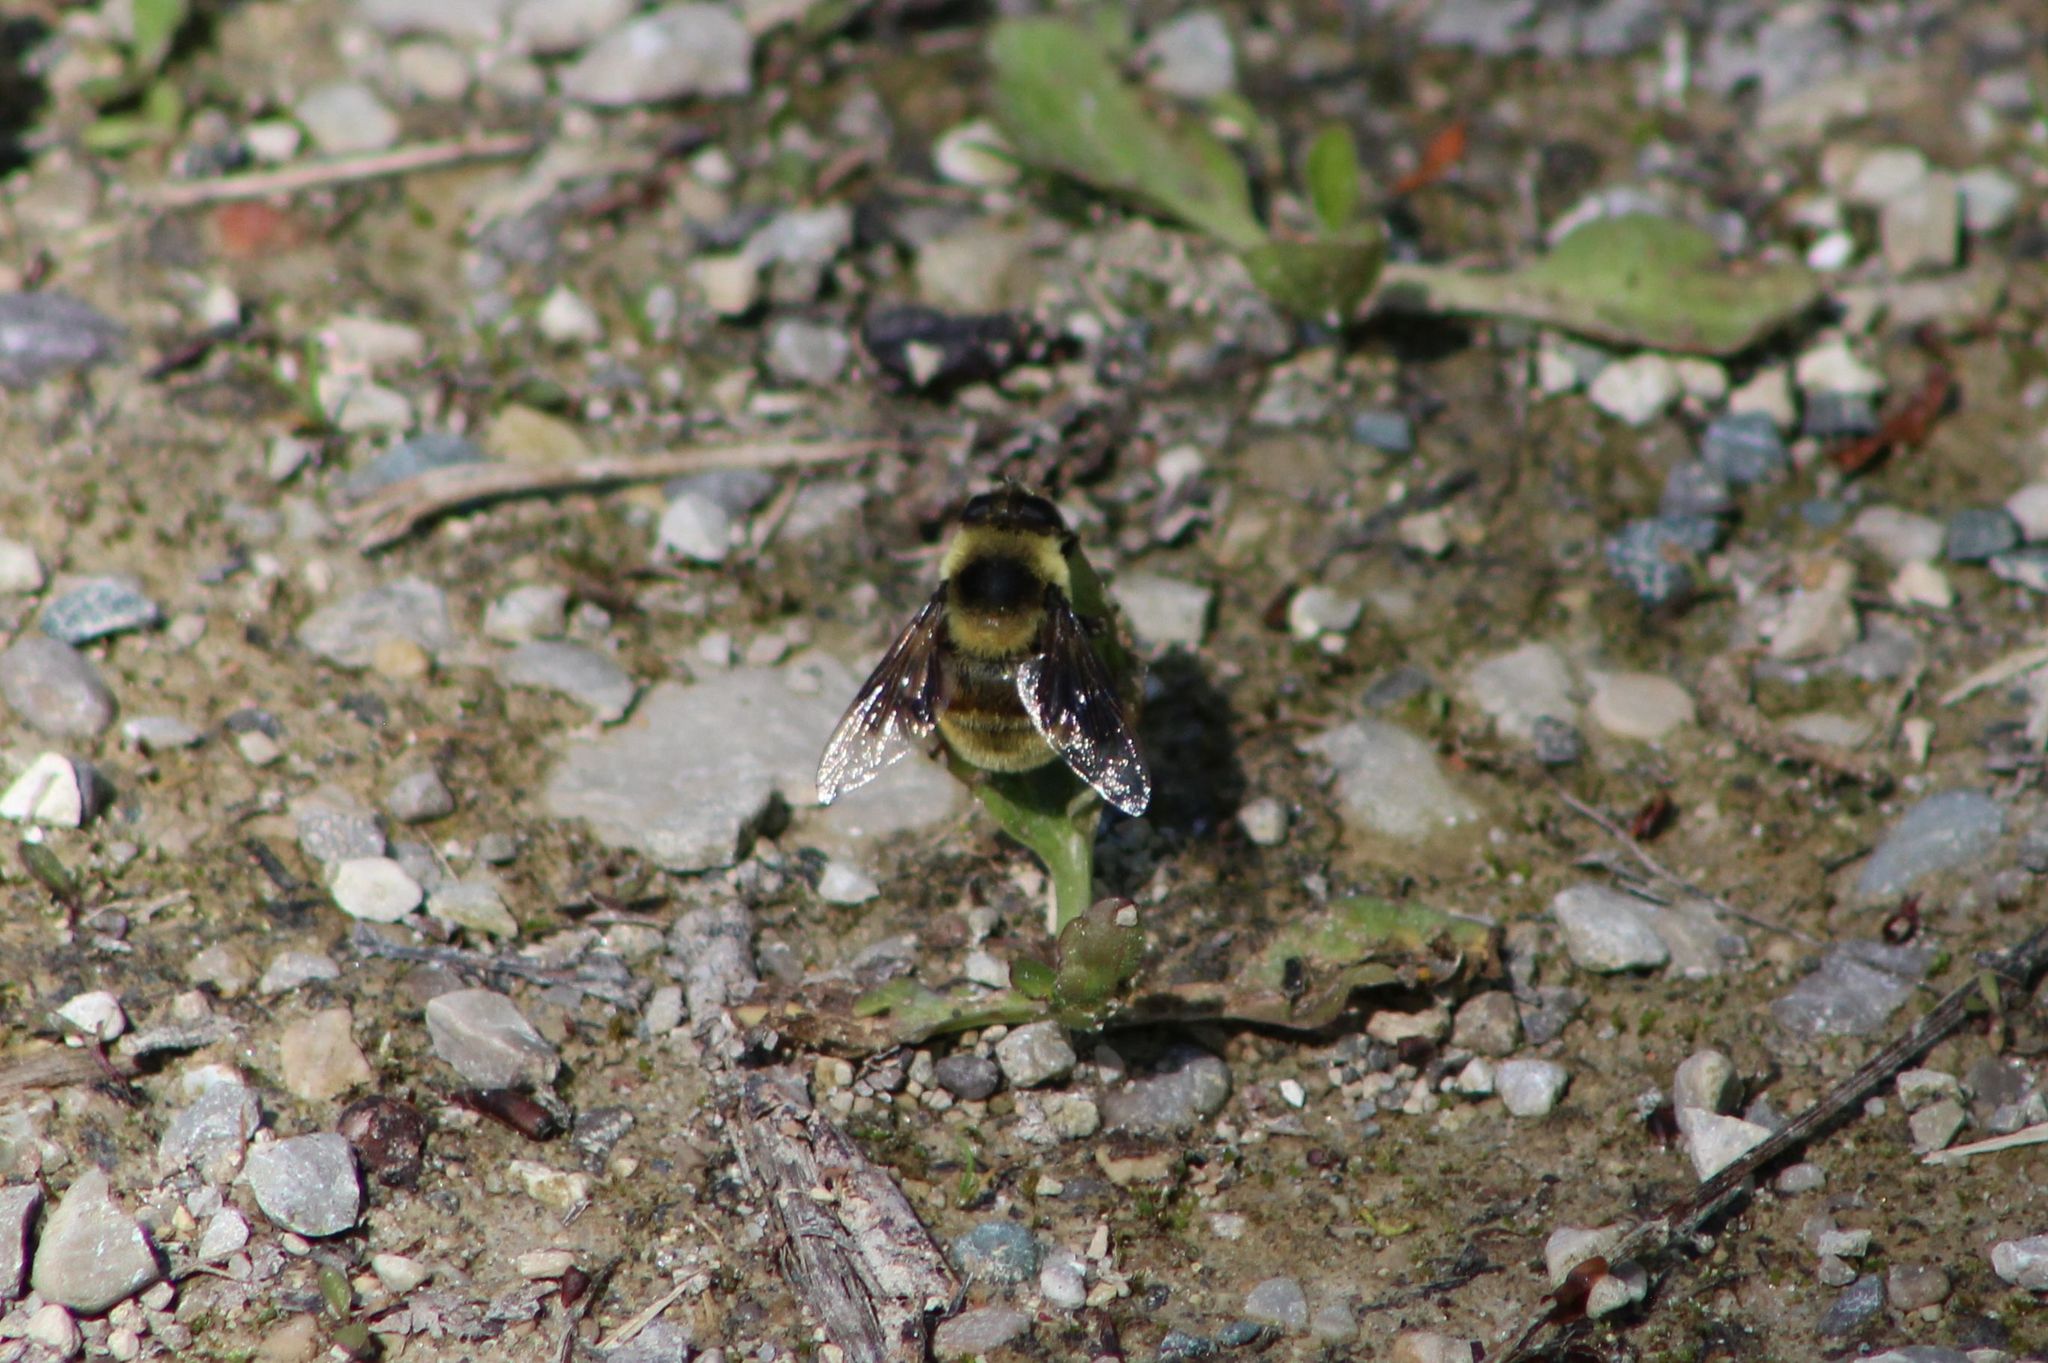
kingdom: Animalia
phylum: Arthropoda
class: Insecta
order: Diptera
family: Syrphidae
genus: Eristalis
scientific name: Eristalis flavipes
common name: Orange-legged drone fly
